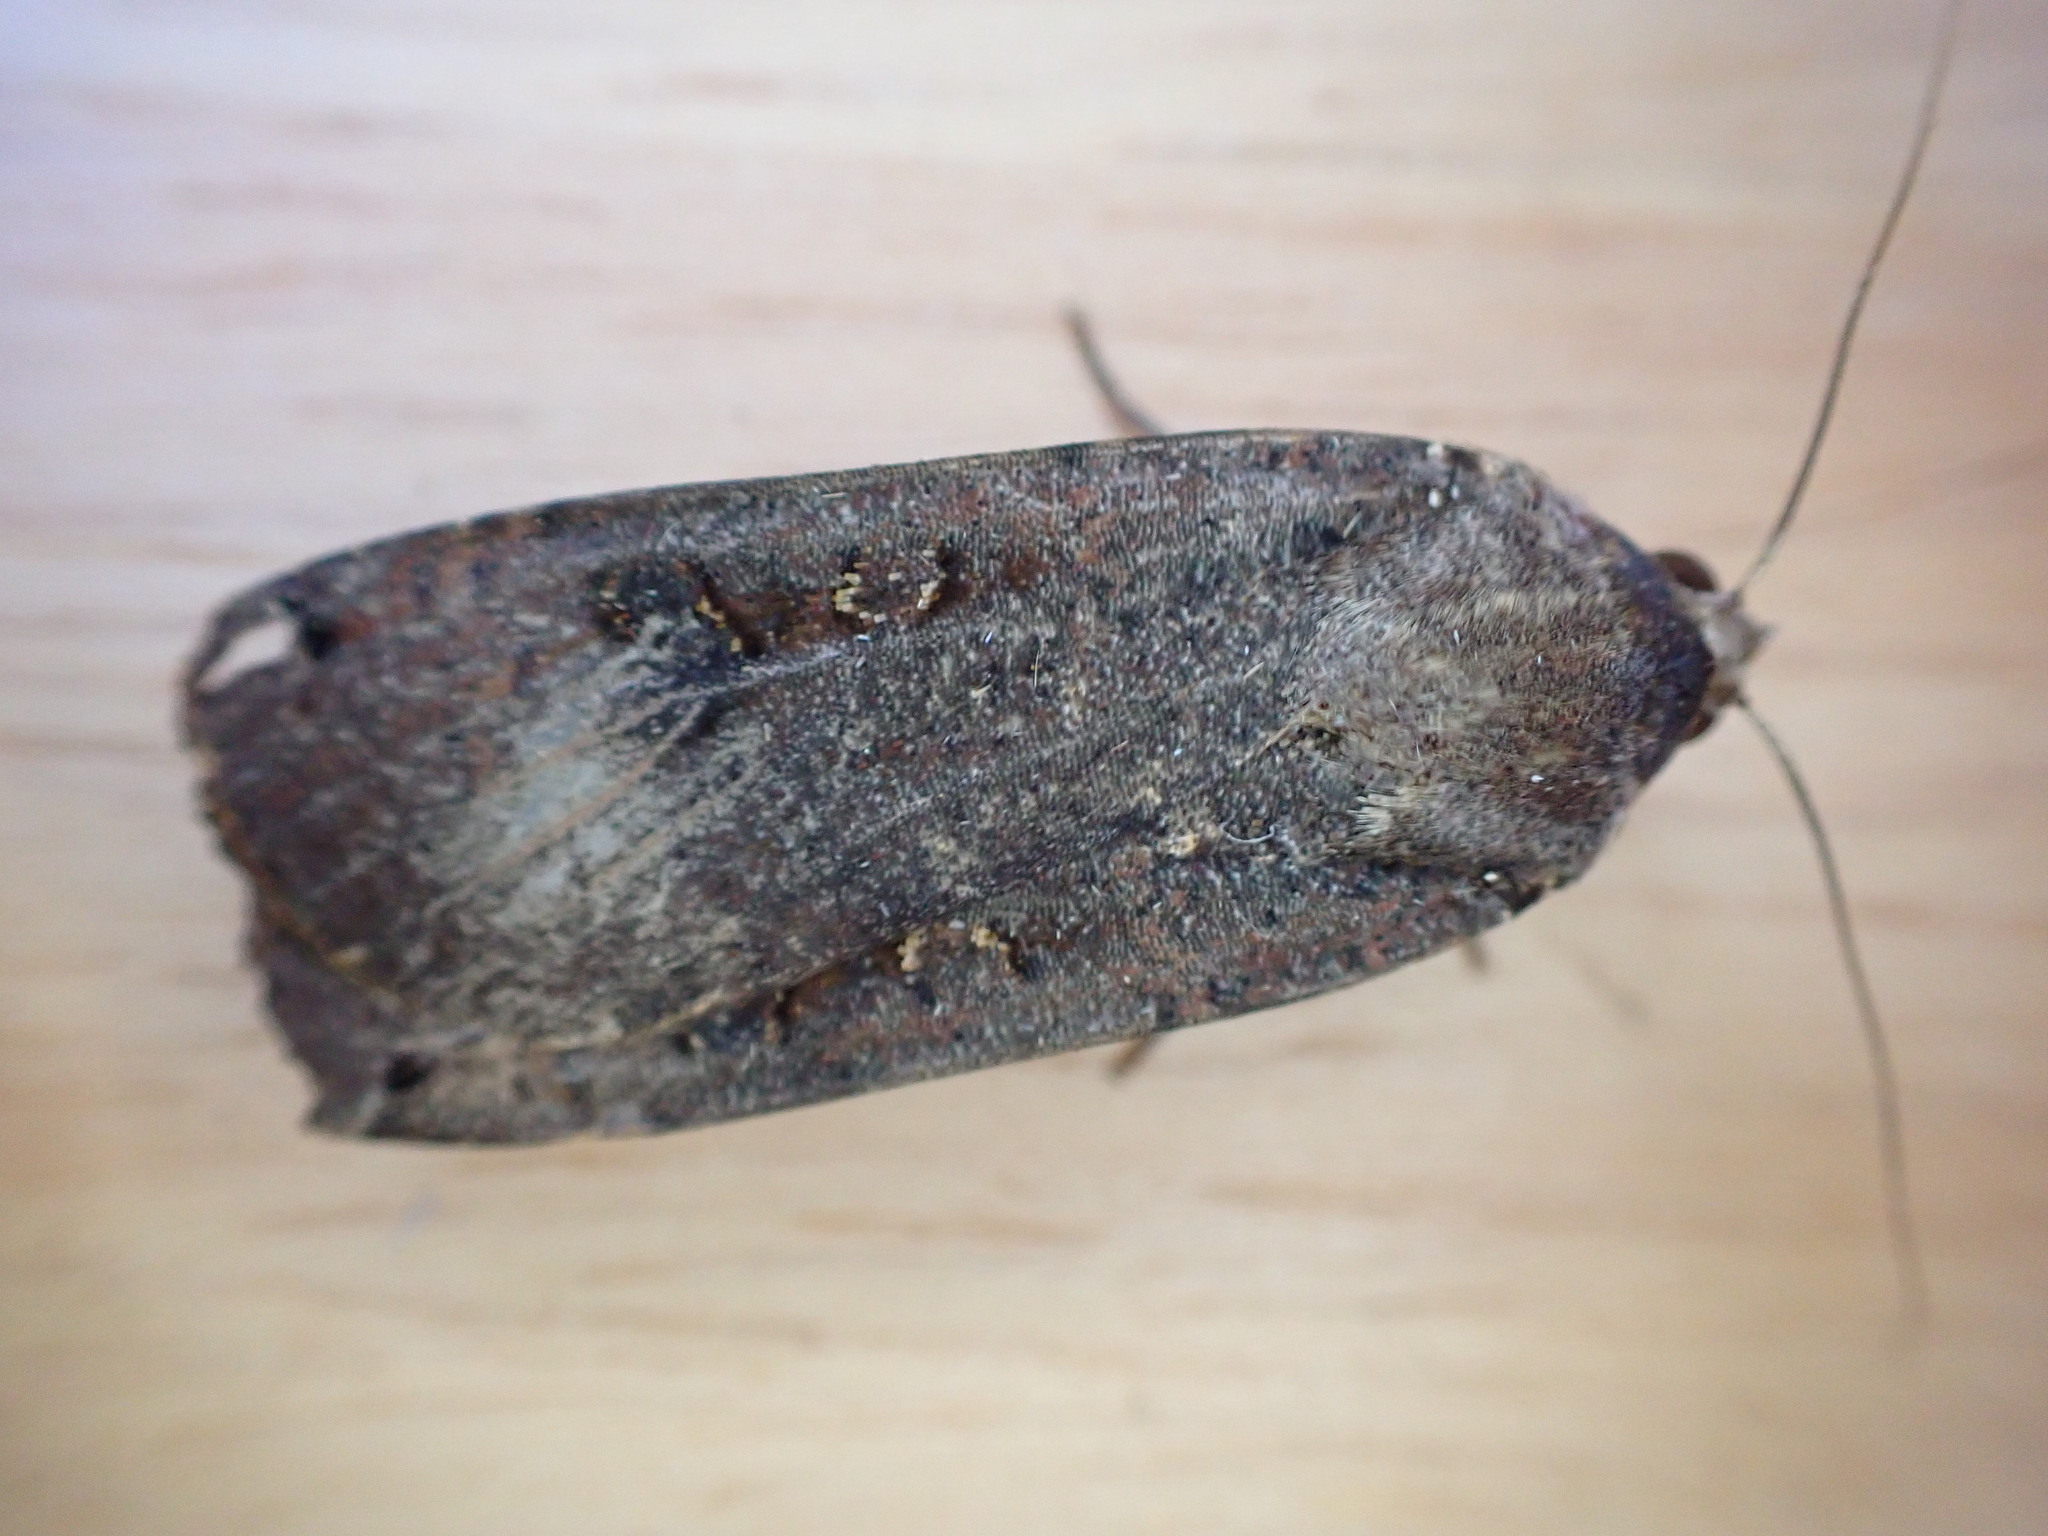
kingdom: Animalia
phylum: Arthropoda
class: Insecta
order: Lepidoptera
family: Noctuidae
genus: Noctua
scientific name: Noctua pronuba
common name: Large yellow underwing
